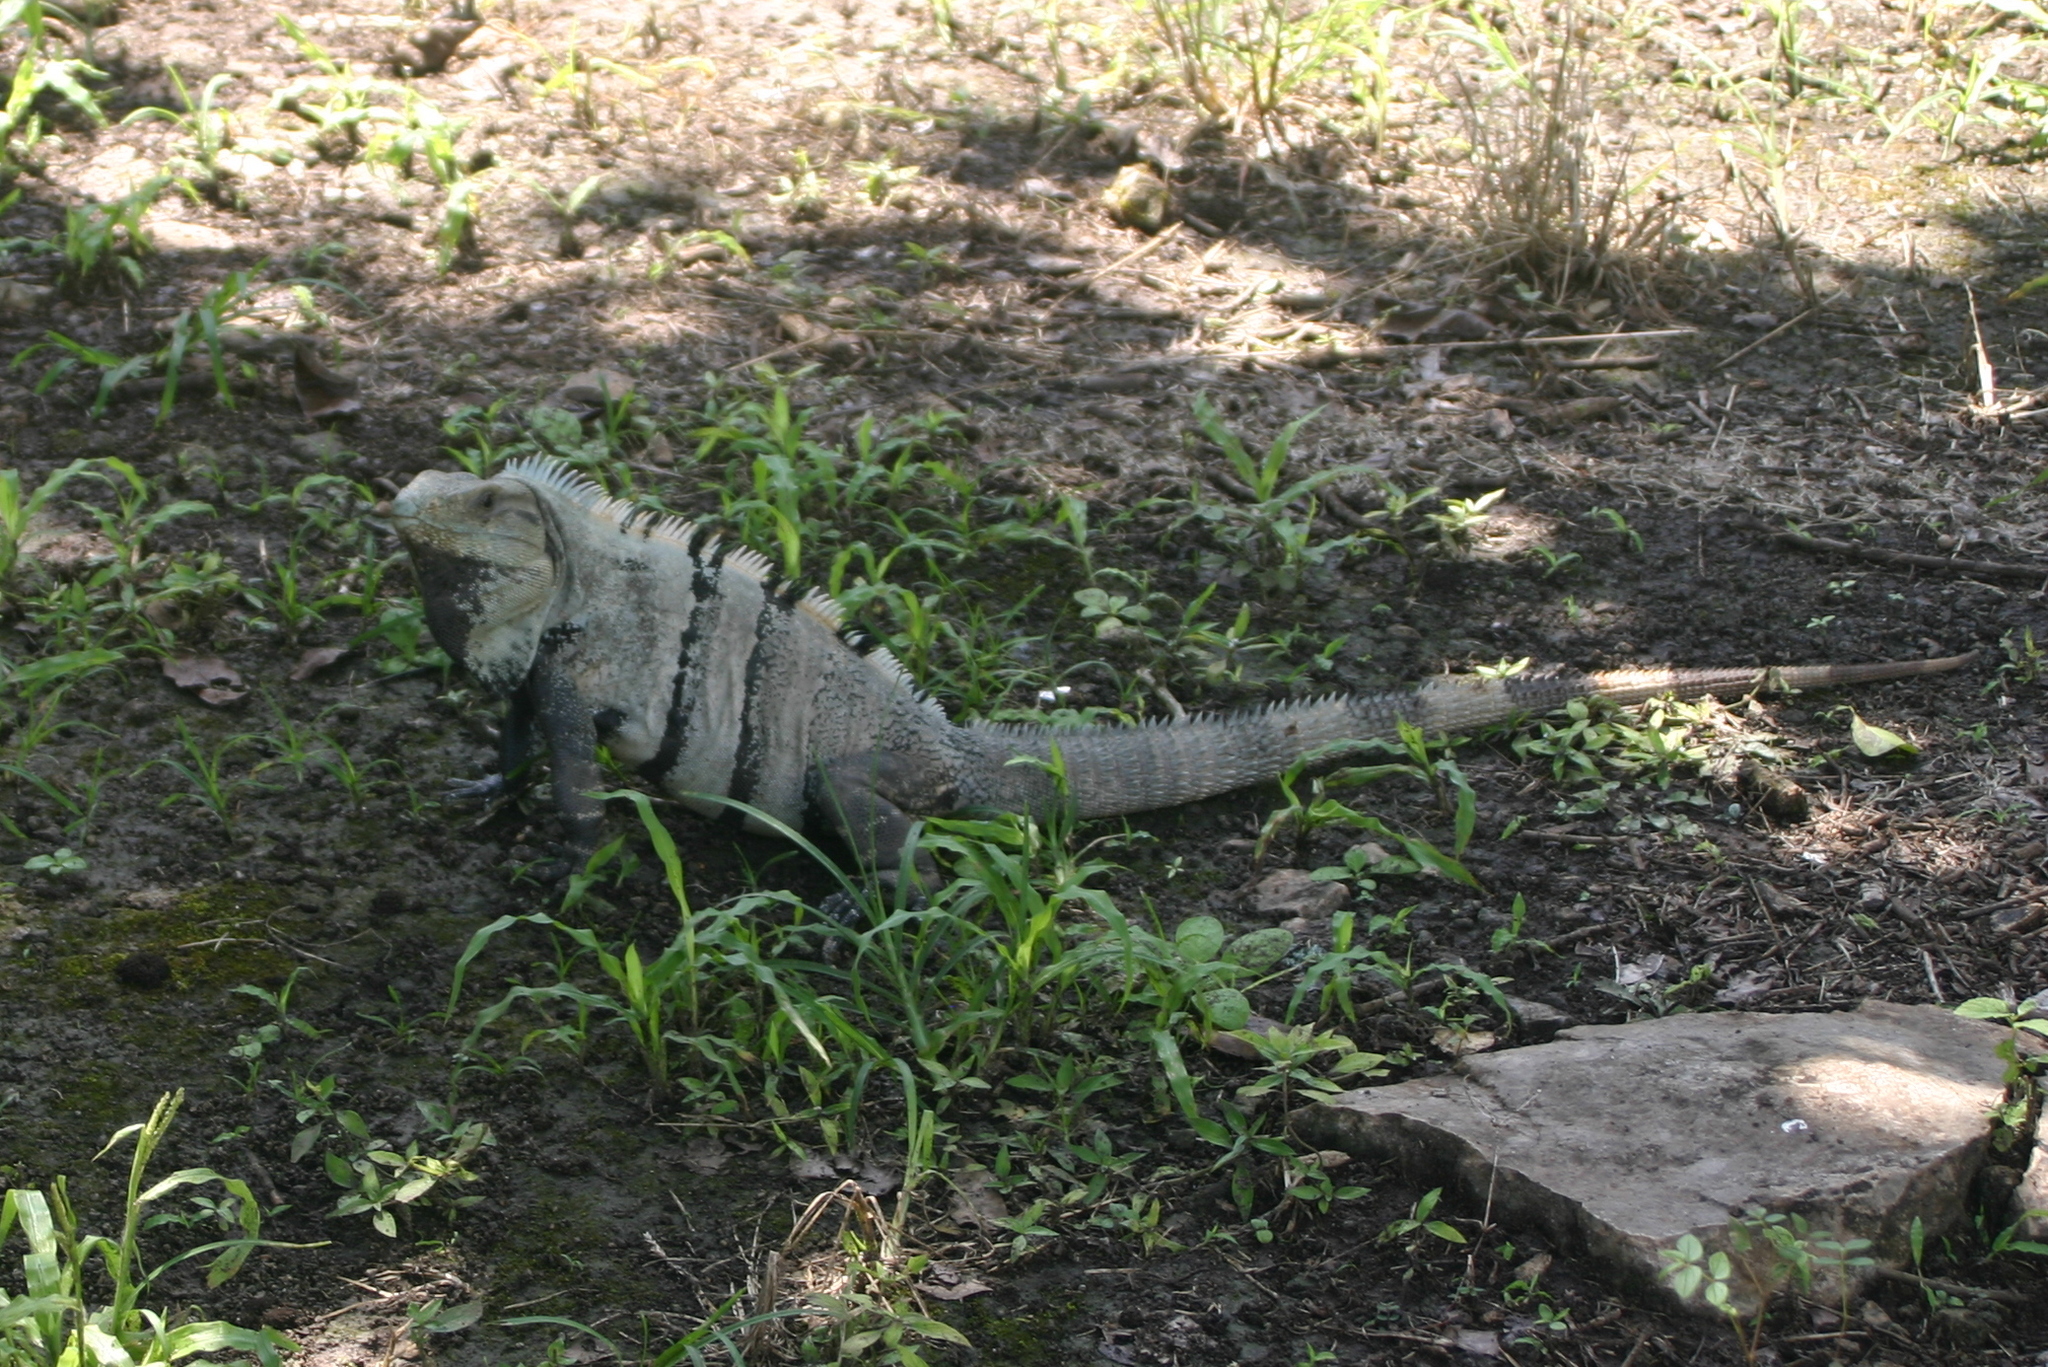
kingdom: Animalia
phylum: Chordata
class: Squamata
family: Iguanidae
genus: Ctenosaura
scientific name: Ctenosaura similis
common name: Black spiny-tailed iguana
